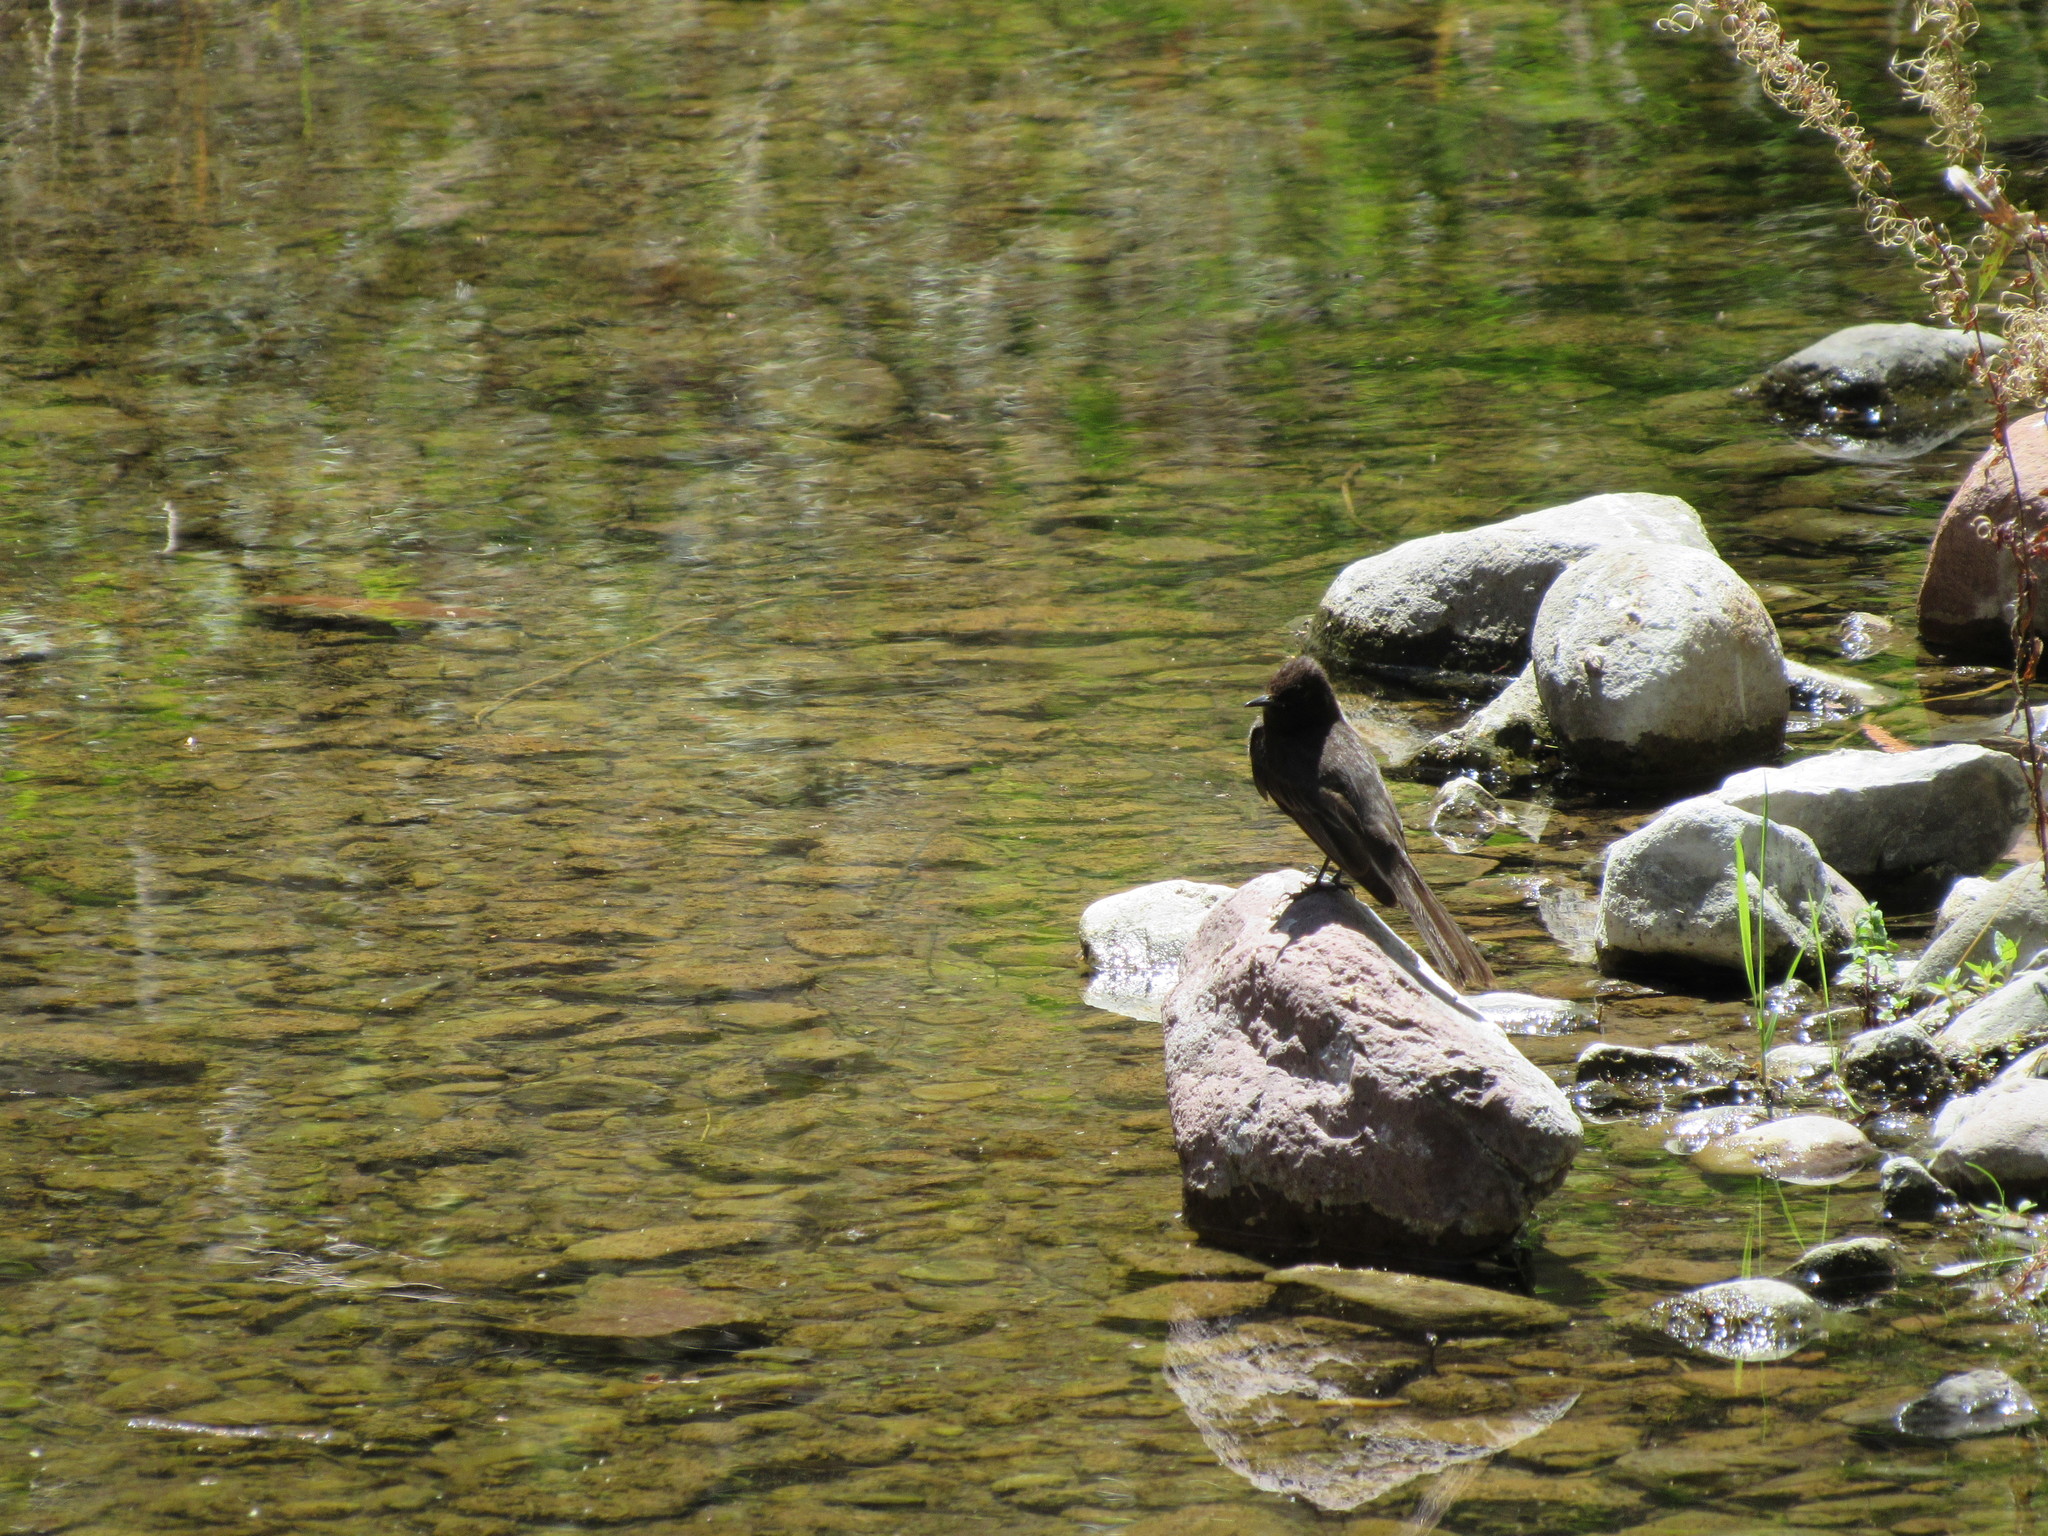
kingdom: Animalia
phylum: Chordata
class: Aves
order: Passeriformes
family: Tyrannidae
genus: Sayornis
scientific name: Sayornis nigricans
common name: Black phoebe
